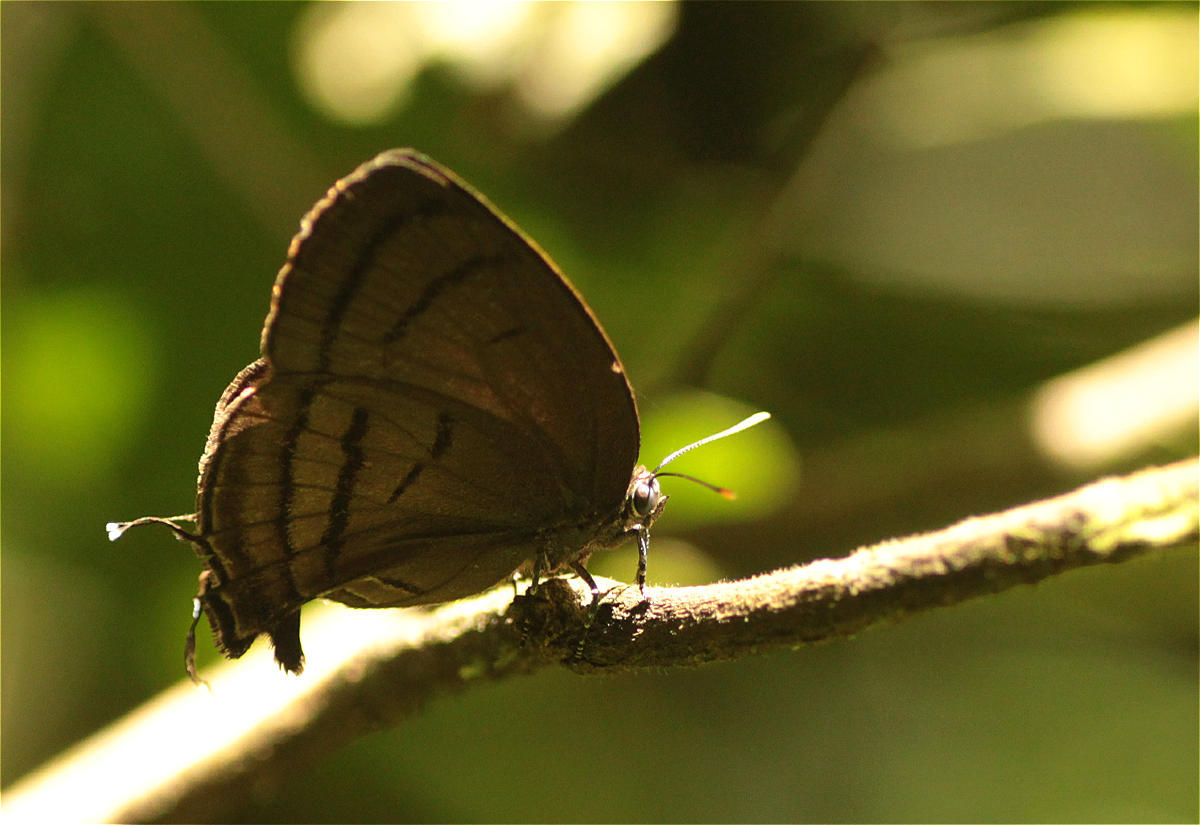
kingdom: Animalia
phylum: Arthropoda
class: Insecta
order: Lepidoptera
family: Lycaenidae
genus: Theritas
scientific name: Theritas mavors
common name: Deep-green hairstreak
